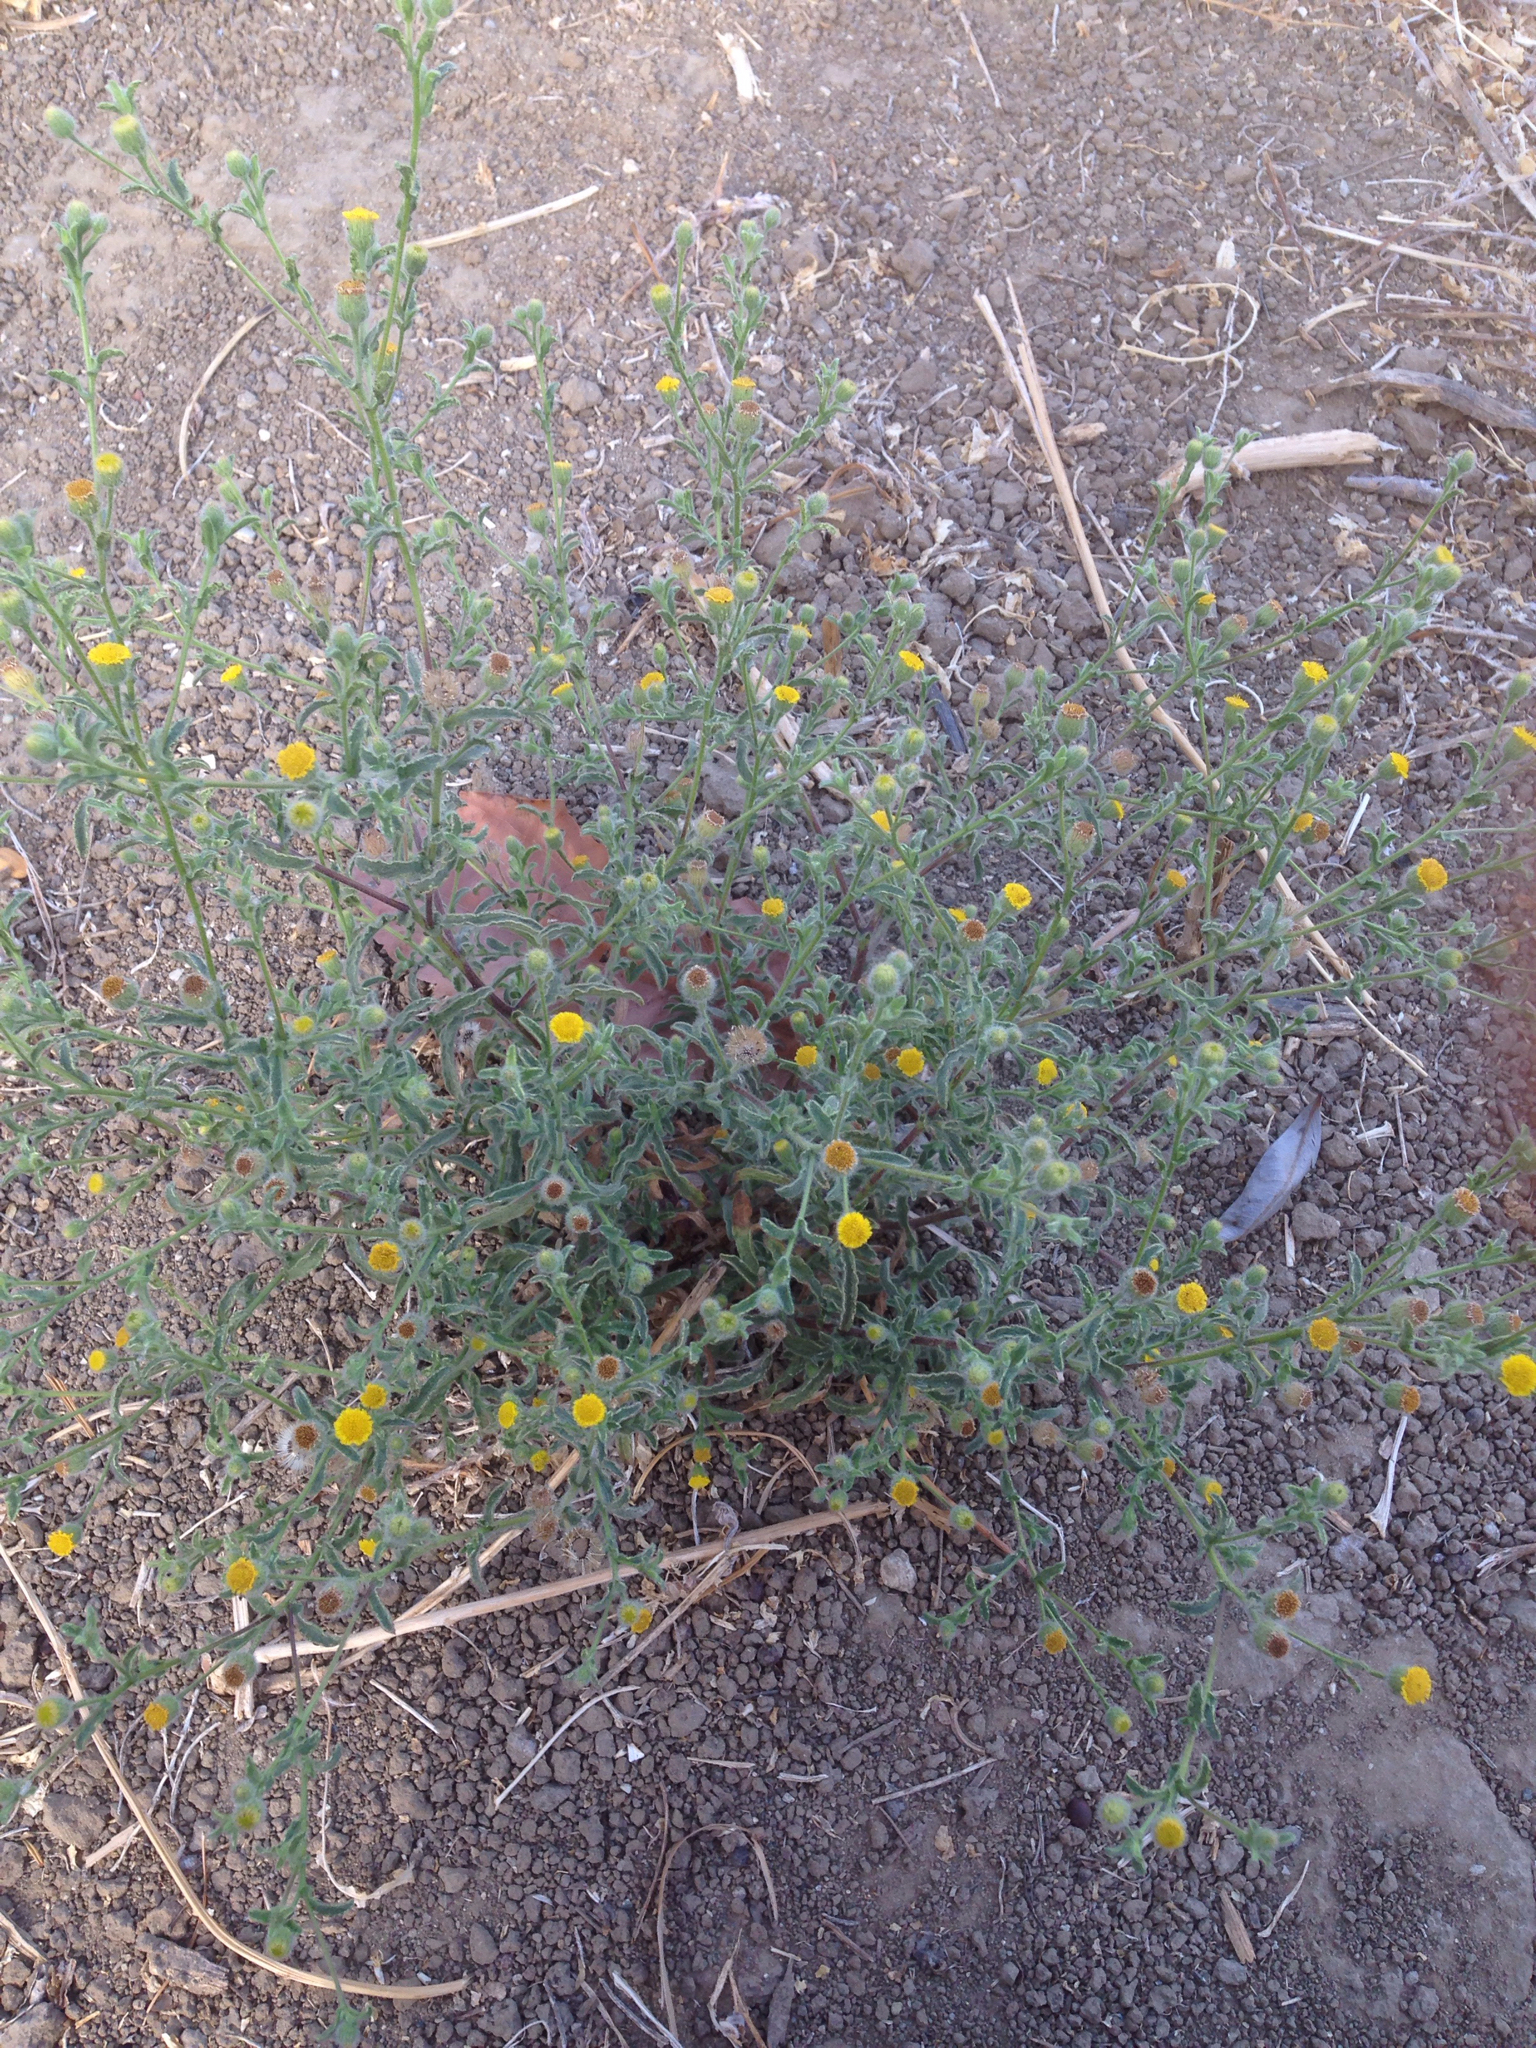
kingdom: Plantae
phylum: Tracheophyta
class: Magnoliopsida
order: Asterales
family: Asteraceae
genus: Pulicaria
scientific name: Pulicaria paludosa
